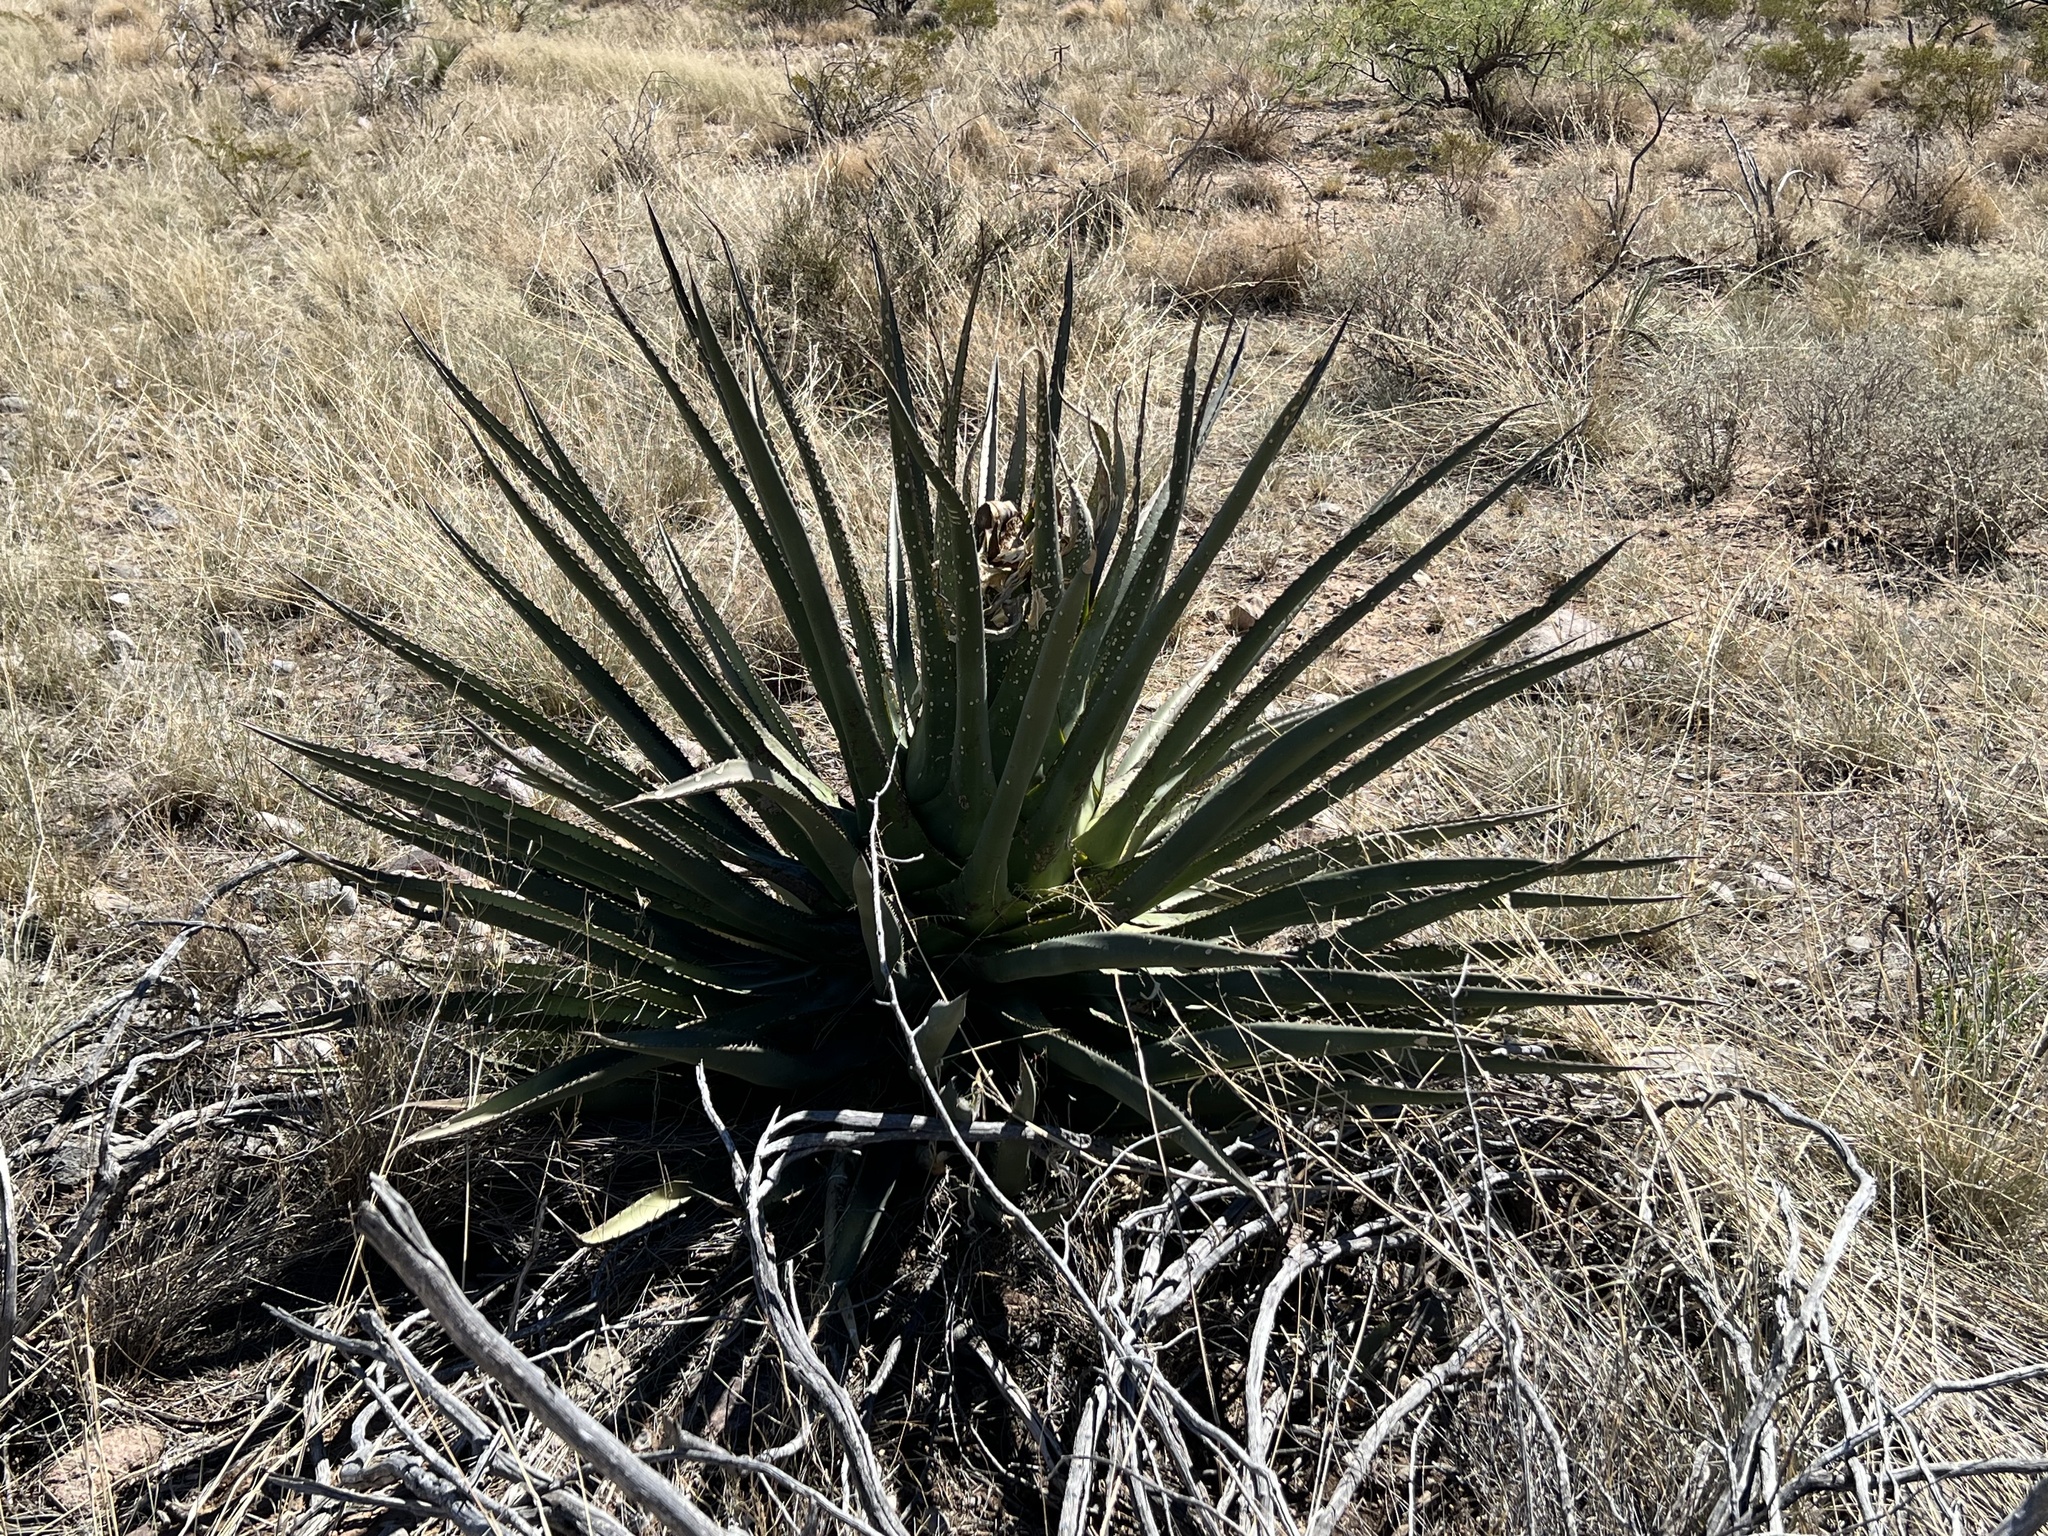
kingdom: Plantae
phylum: Tracheophyta
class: Liliopsida
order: Asparagales
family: Asparagaceae
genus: Agave
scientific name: Agave palmeri
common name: Palmer agave
